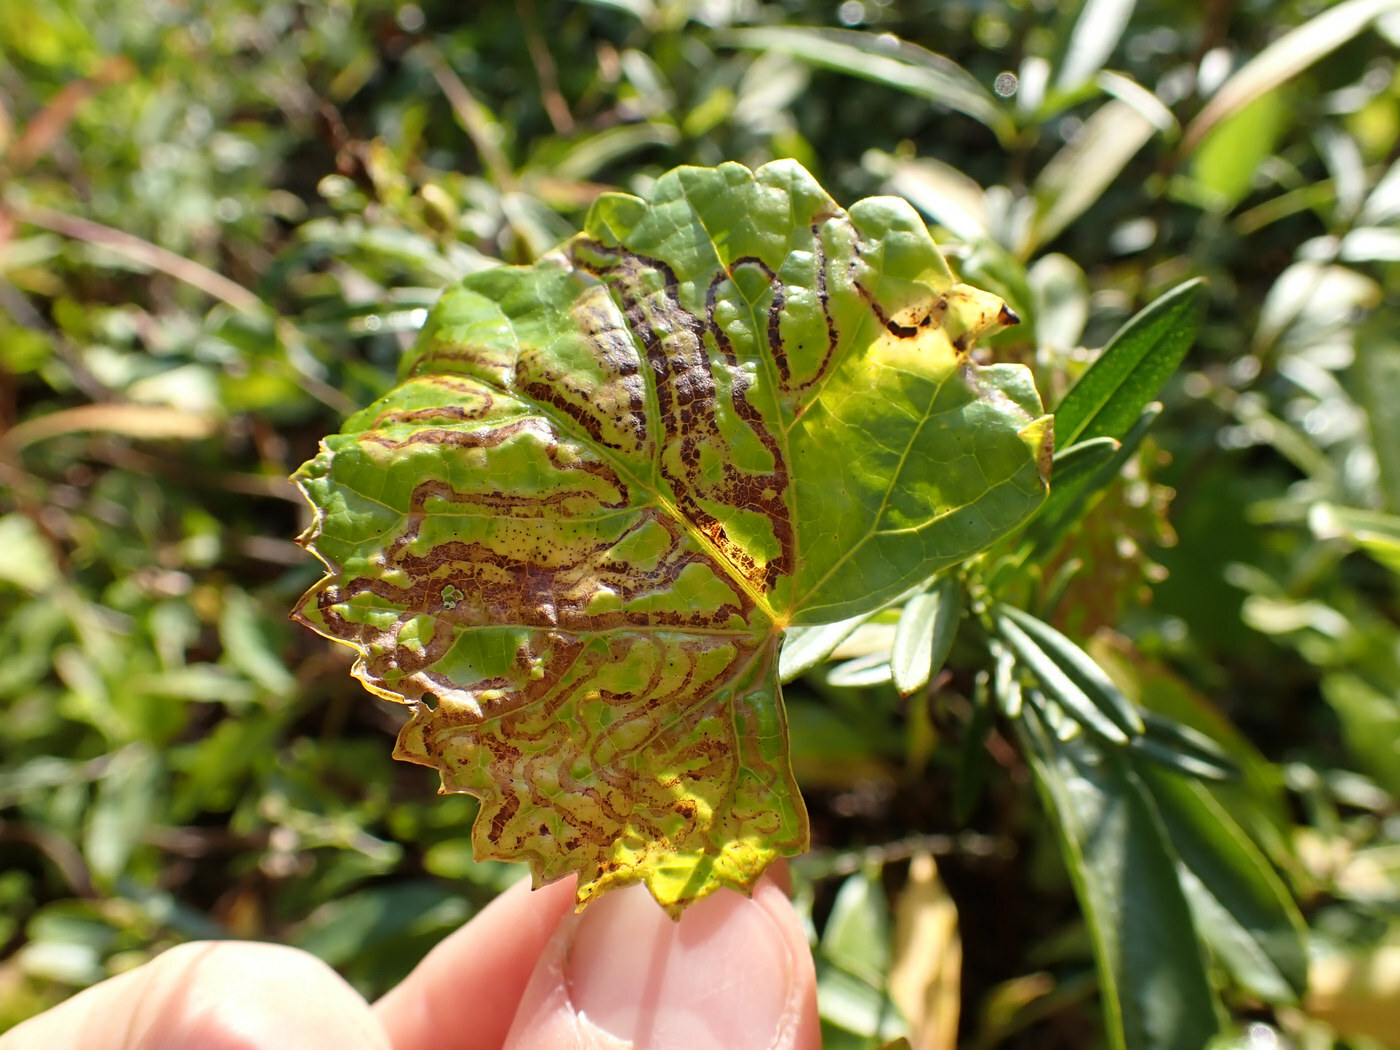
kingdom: Animalia
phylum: Arthropoda
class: Insecta
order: Lepidoptera
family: Gracillariidae
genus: Phyllocnistis
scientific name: Phyllocnistis vitegenella
